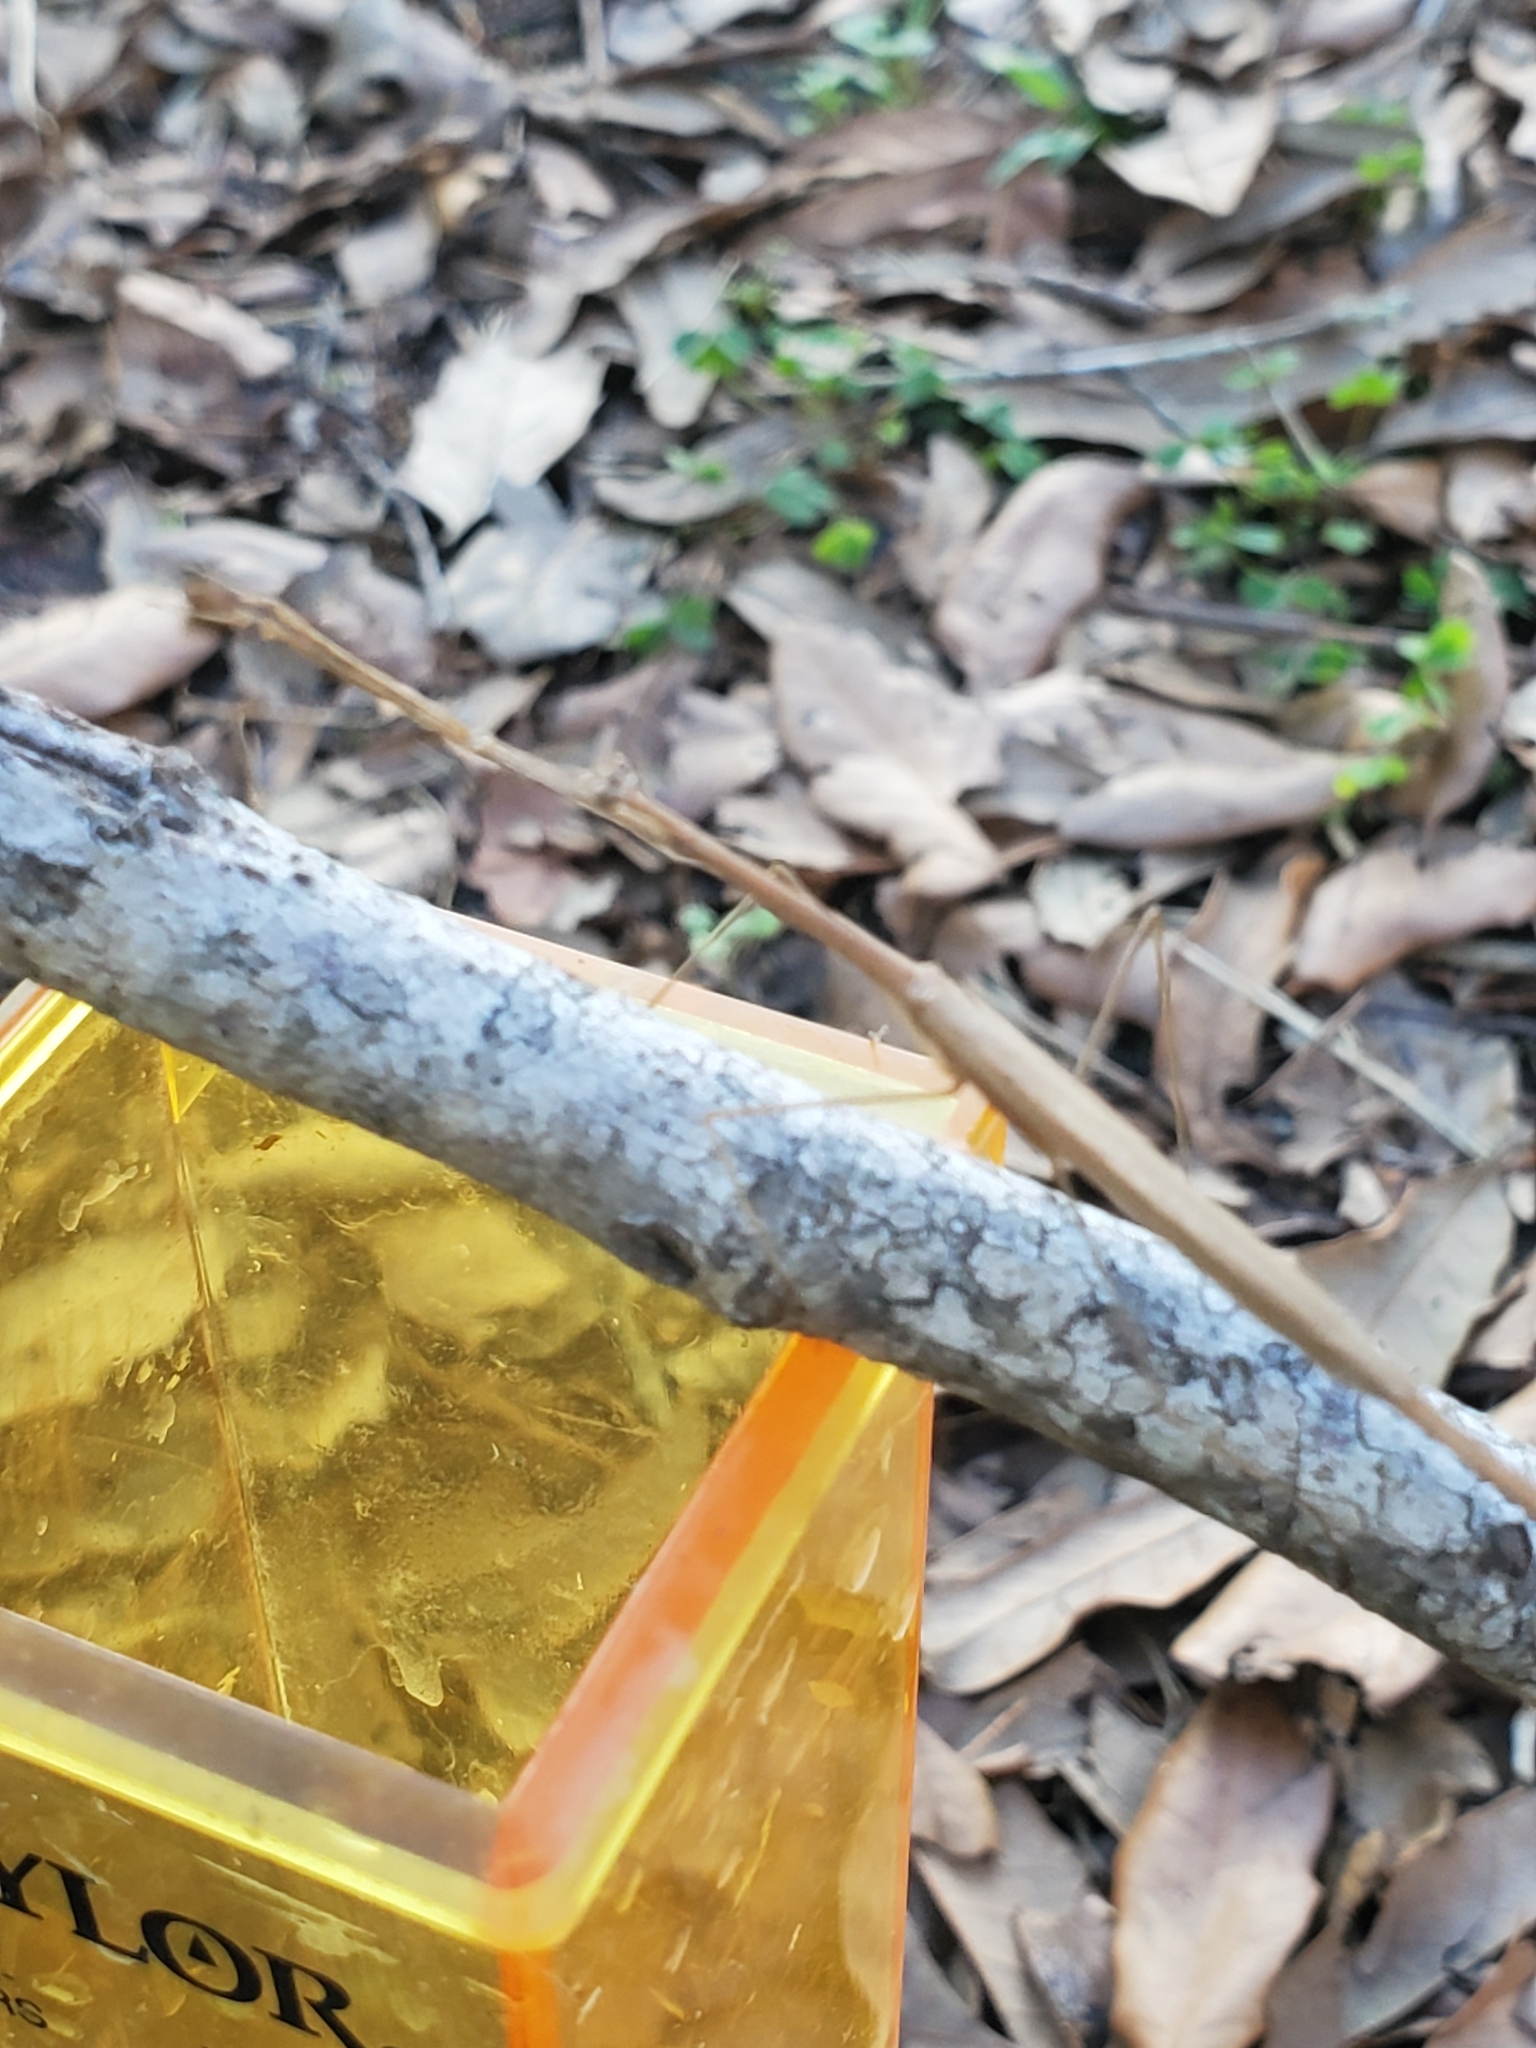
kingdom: Animalia
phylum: Arthropoda
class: Insecta
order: Mantodea
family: Thespidae
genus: Thesprotia
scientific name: Thesprotia graminis
